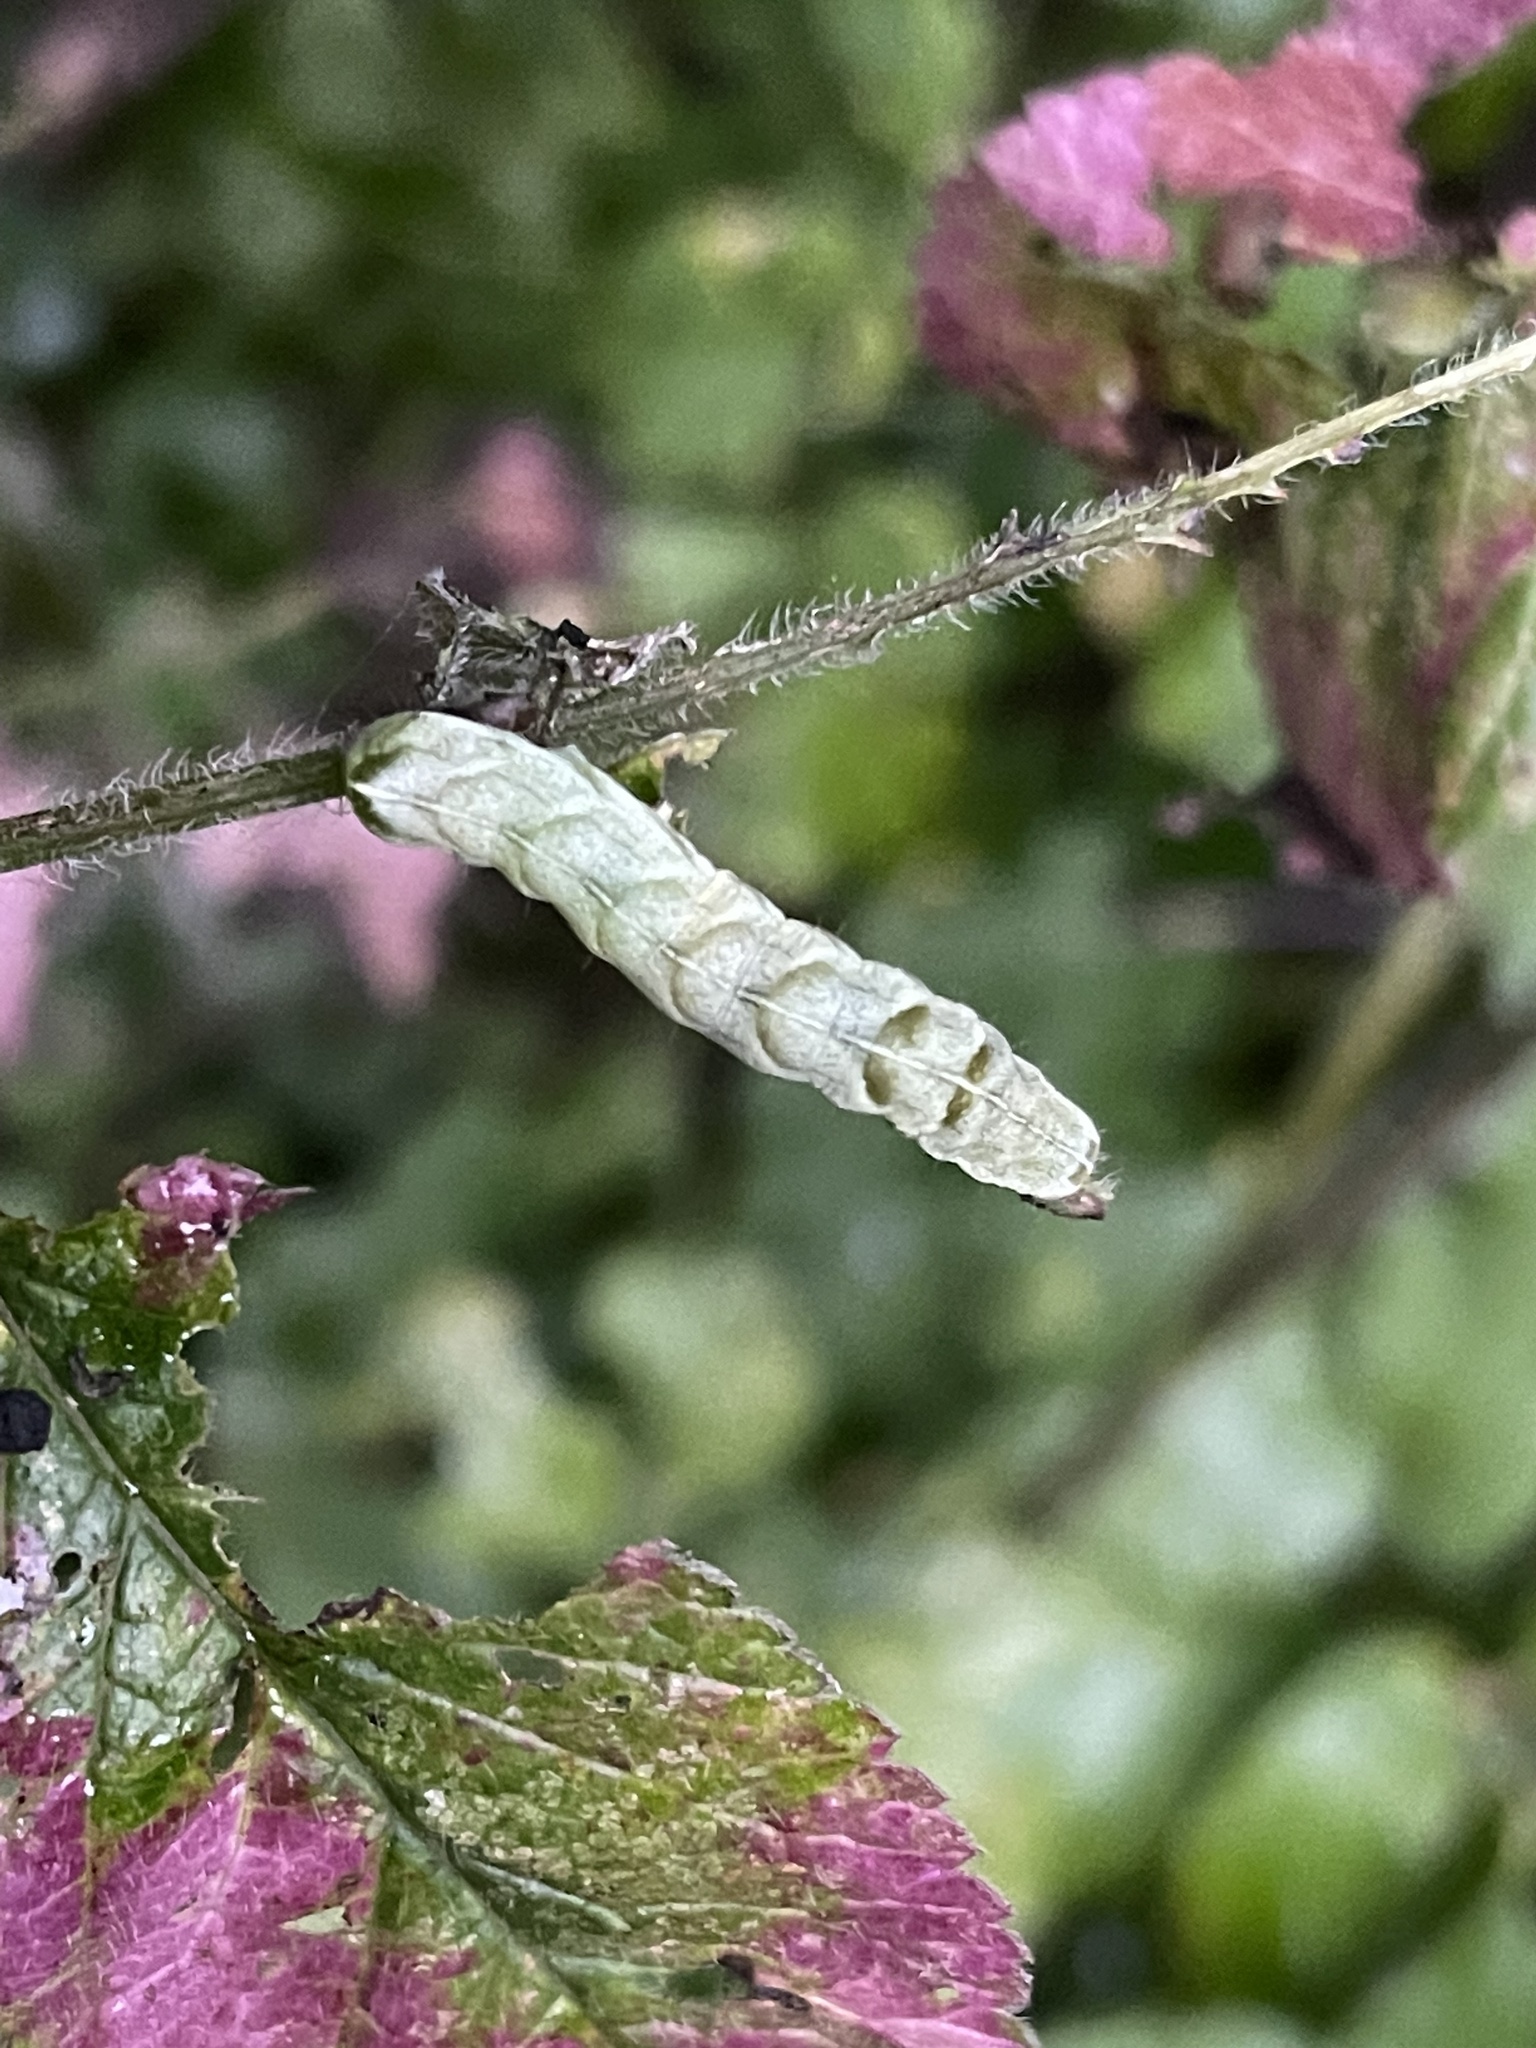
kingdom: Animalia
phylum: Arthropoda
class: Insecta
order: Lepidoptera
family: Noctuidae
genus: Melanchra
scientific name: Melanchra persicariae
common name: Dot moth
